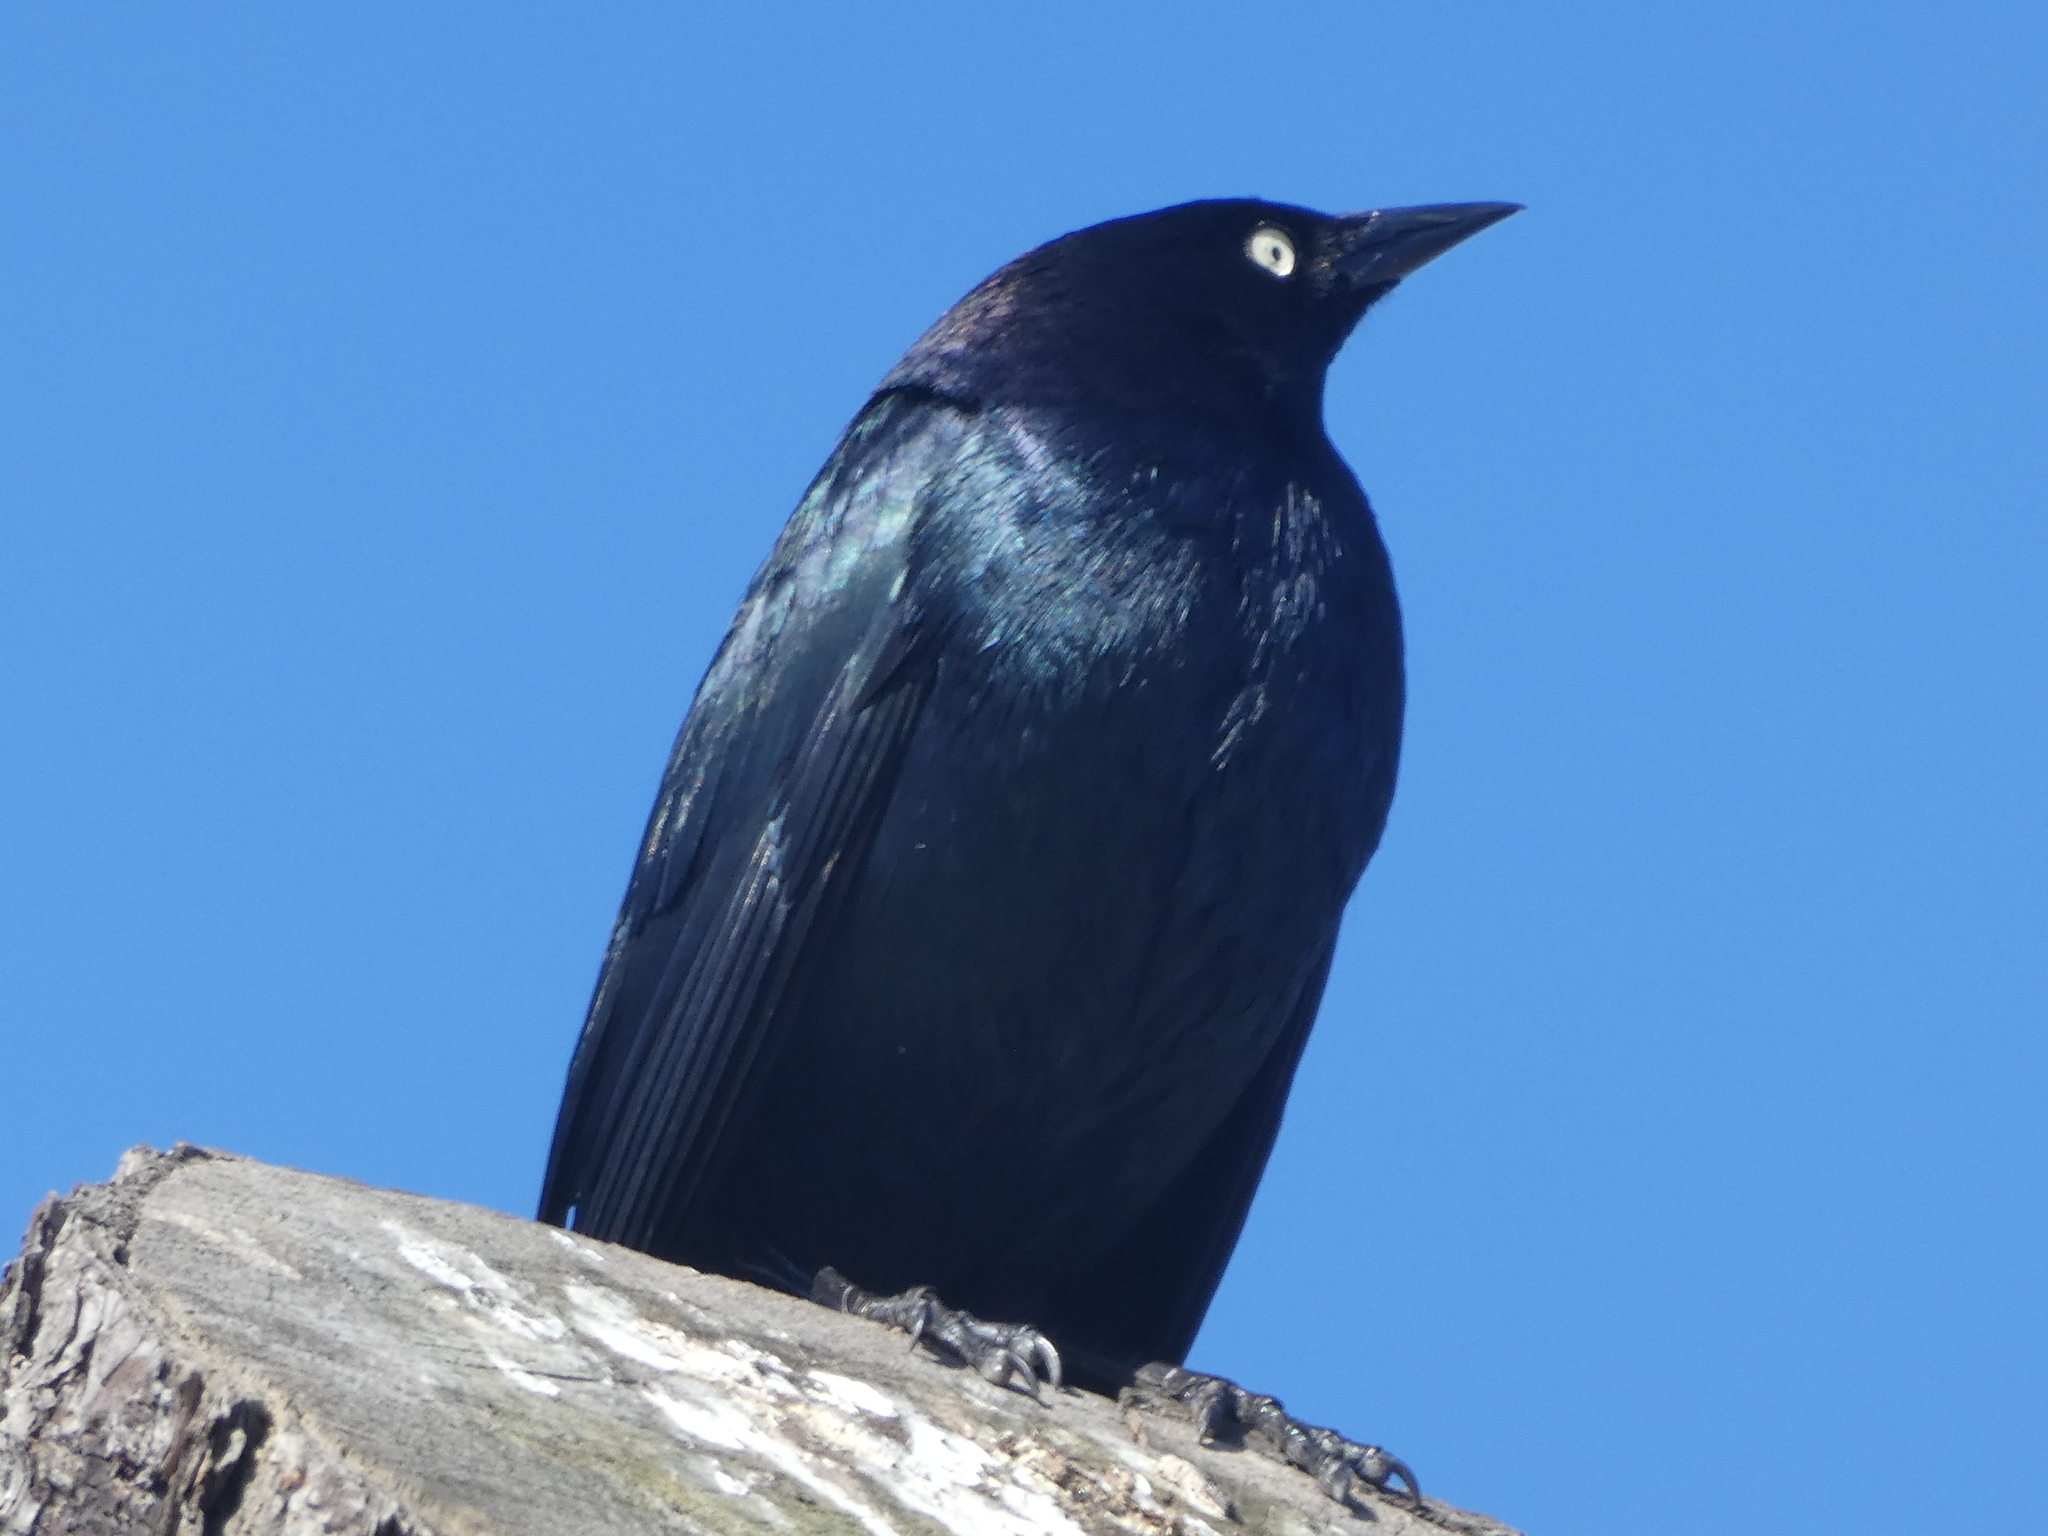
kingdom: Animalia
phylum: Chordata
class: Aves
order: Passeriformes
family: Icteridae
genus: Euphagus
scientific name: Euphagus cyanocephalus
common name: Brewer's blackbird
